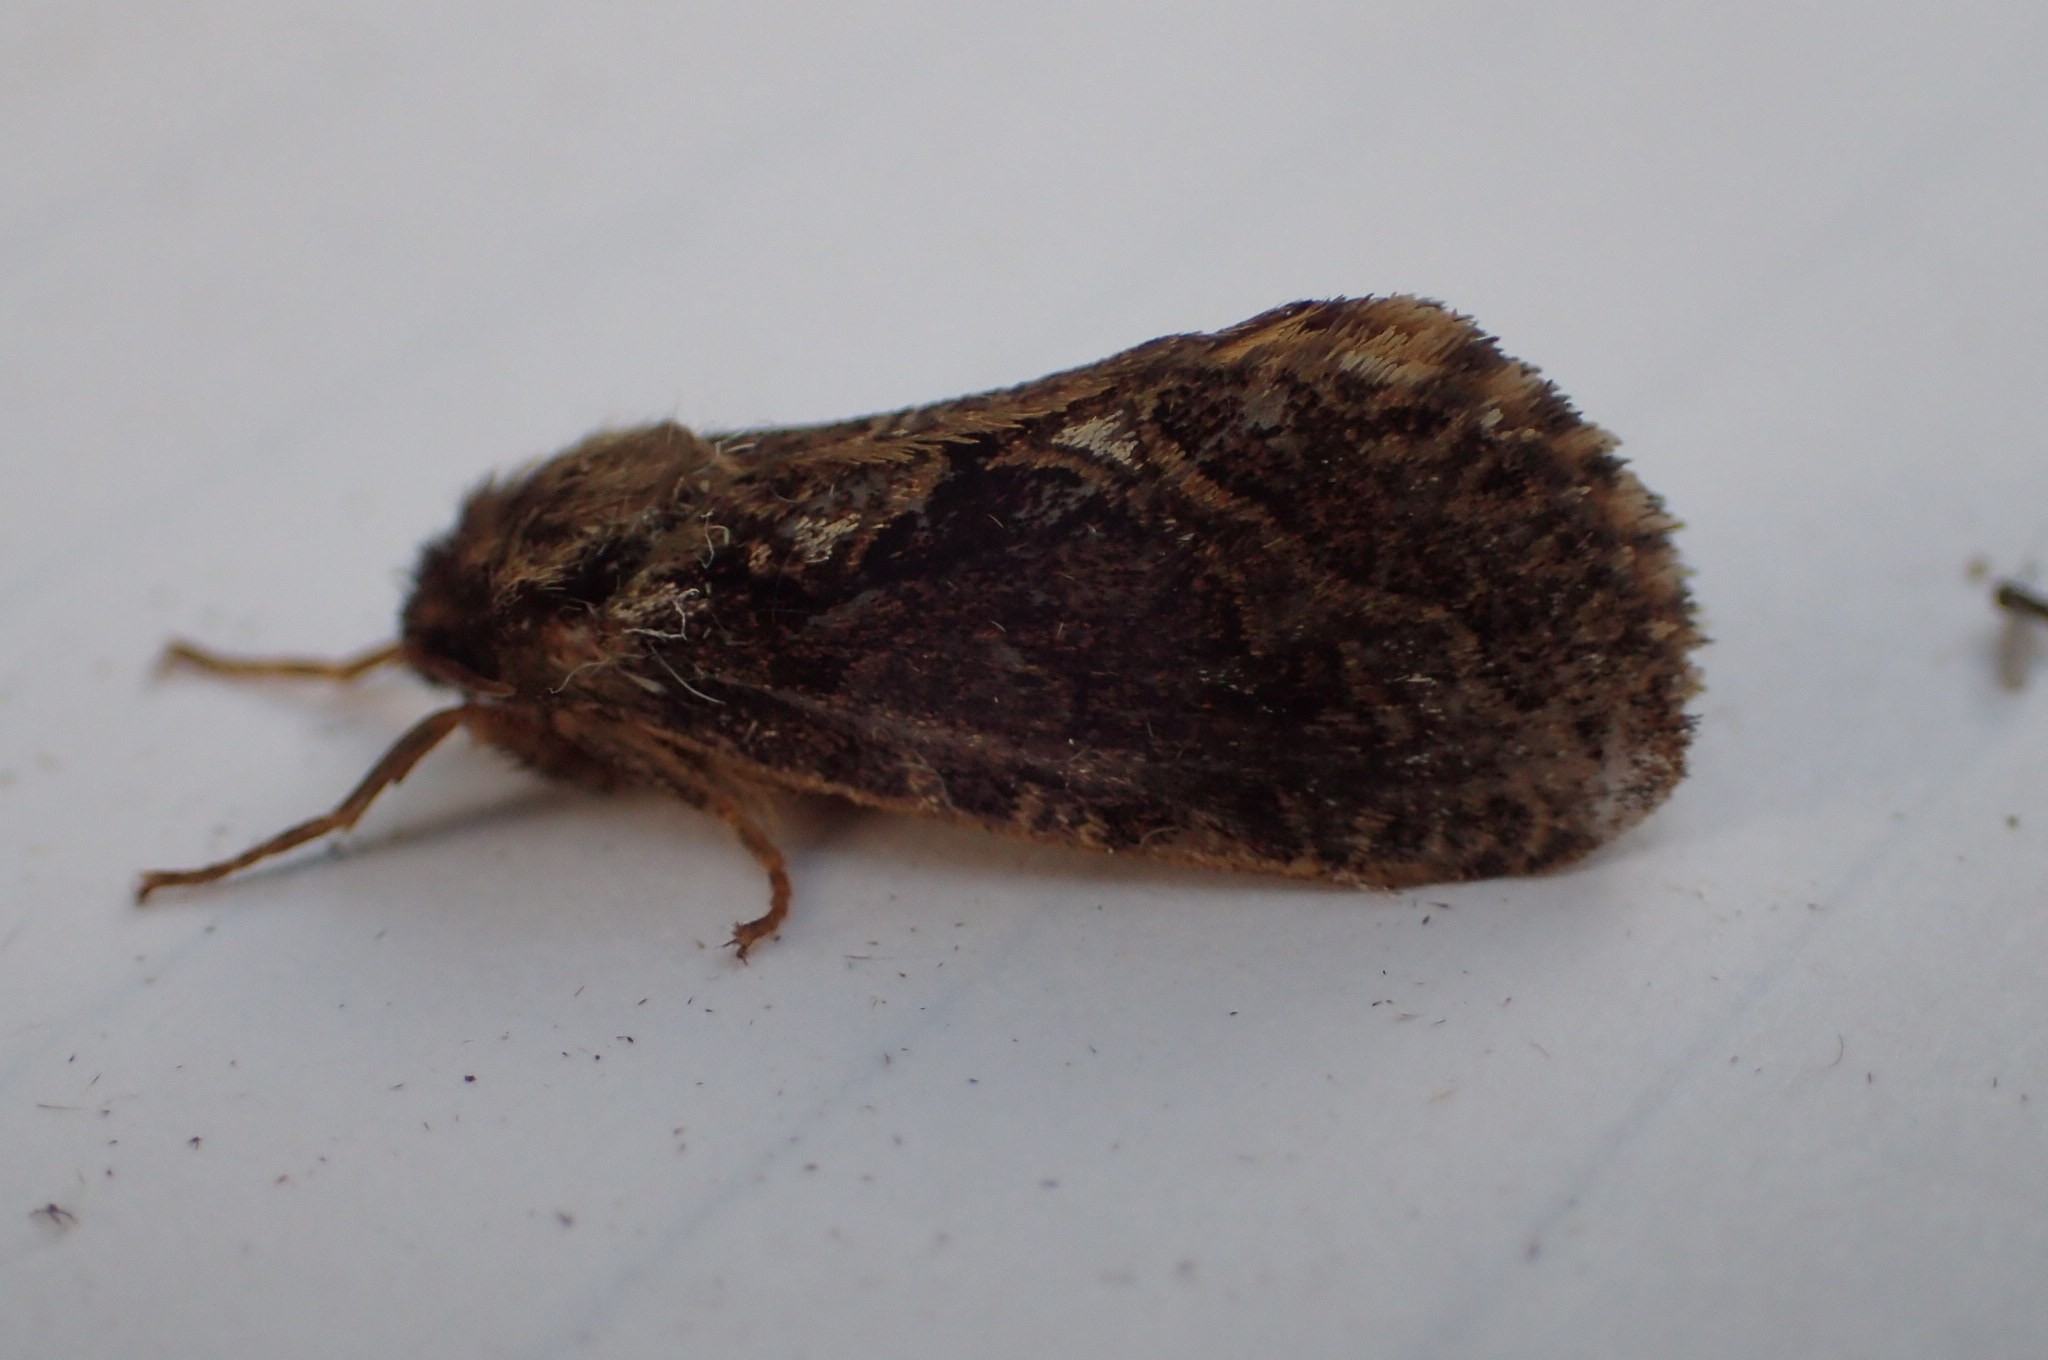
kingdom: Animalia
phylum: Arthropoda
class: Insecta
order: Lepidoptera
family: Hepialidae
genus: Korscheltellus
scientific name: Korscheltellus gracilis
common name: Conifer swift moth
